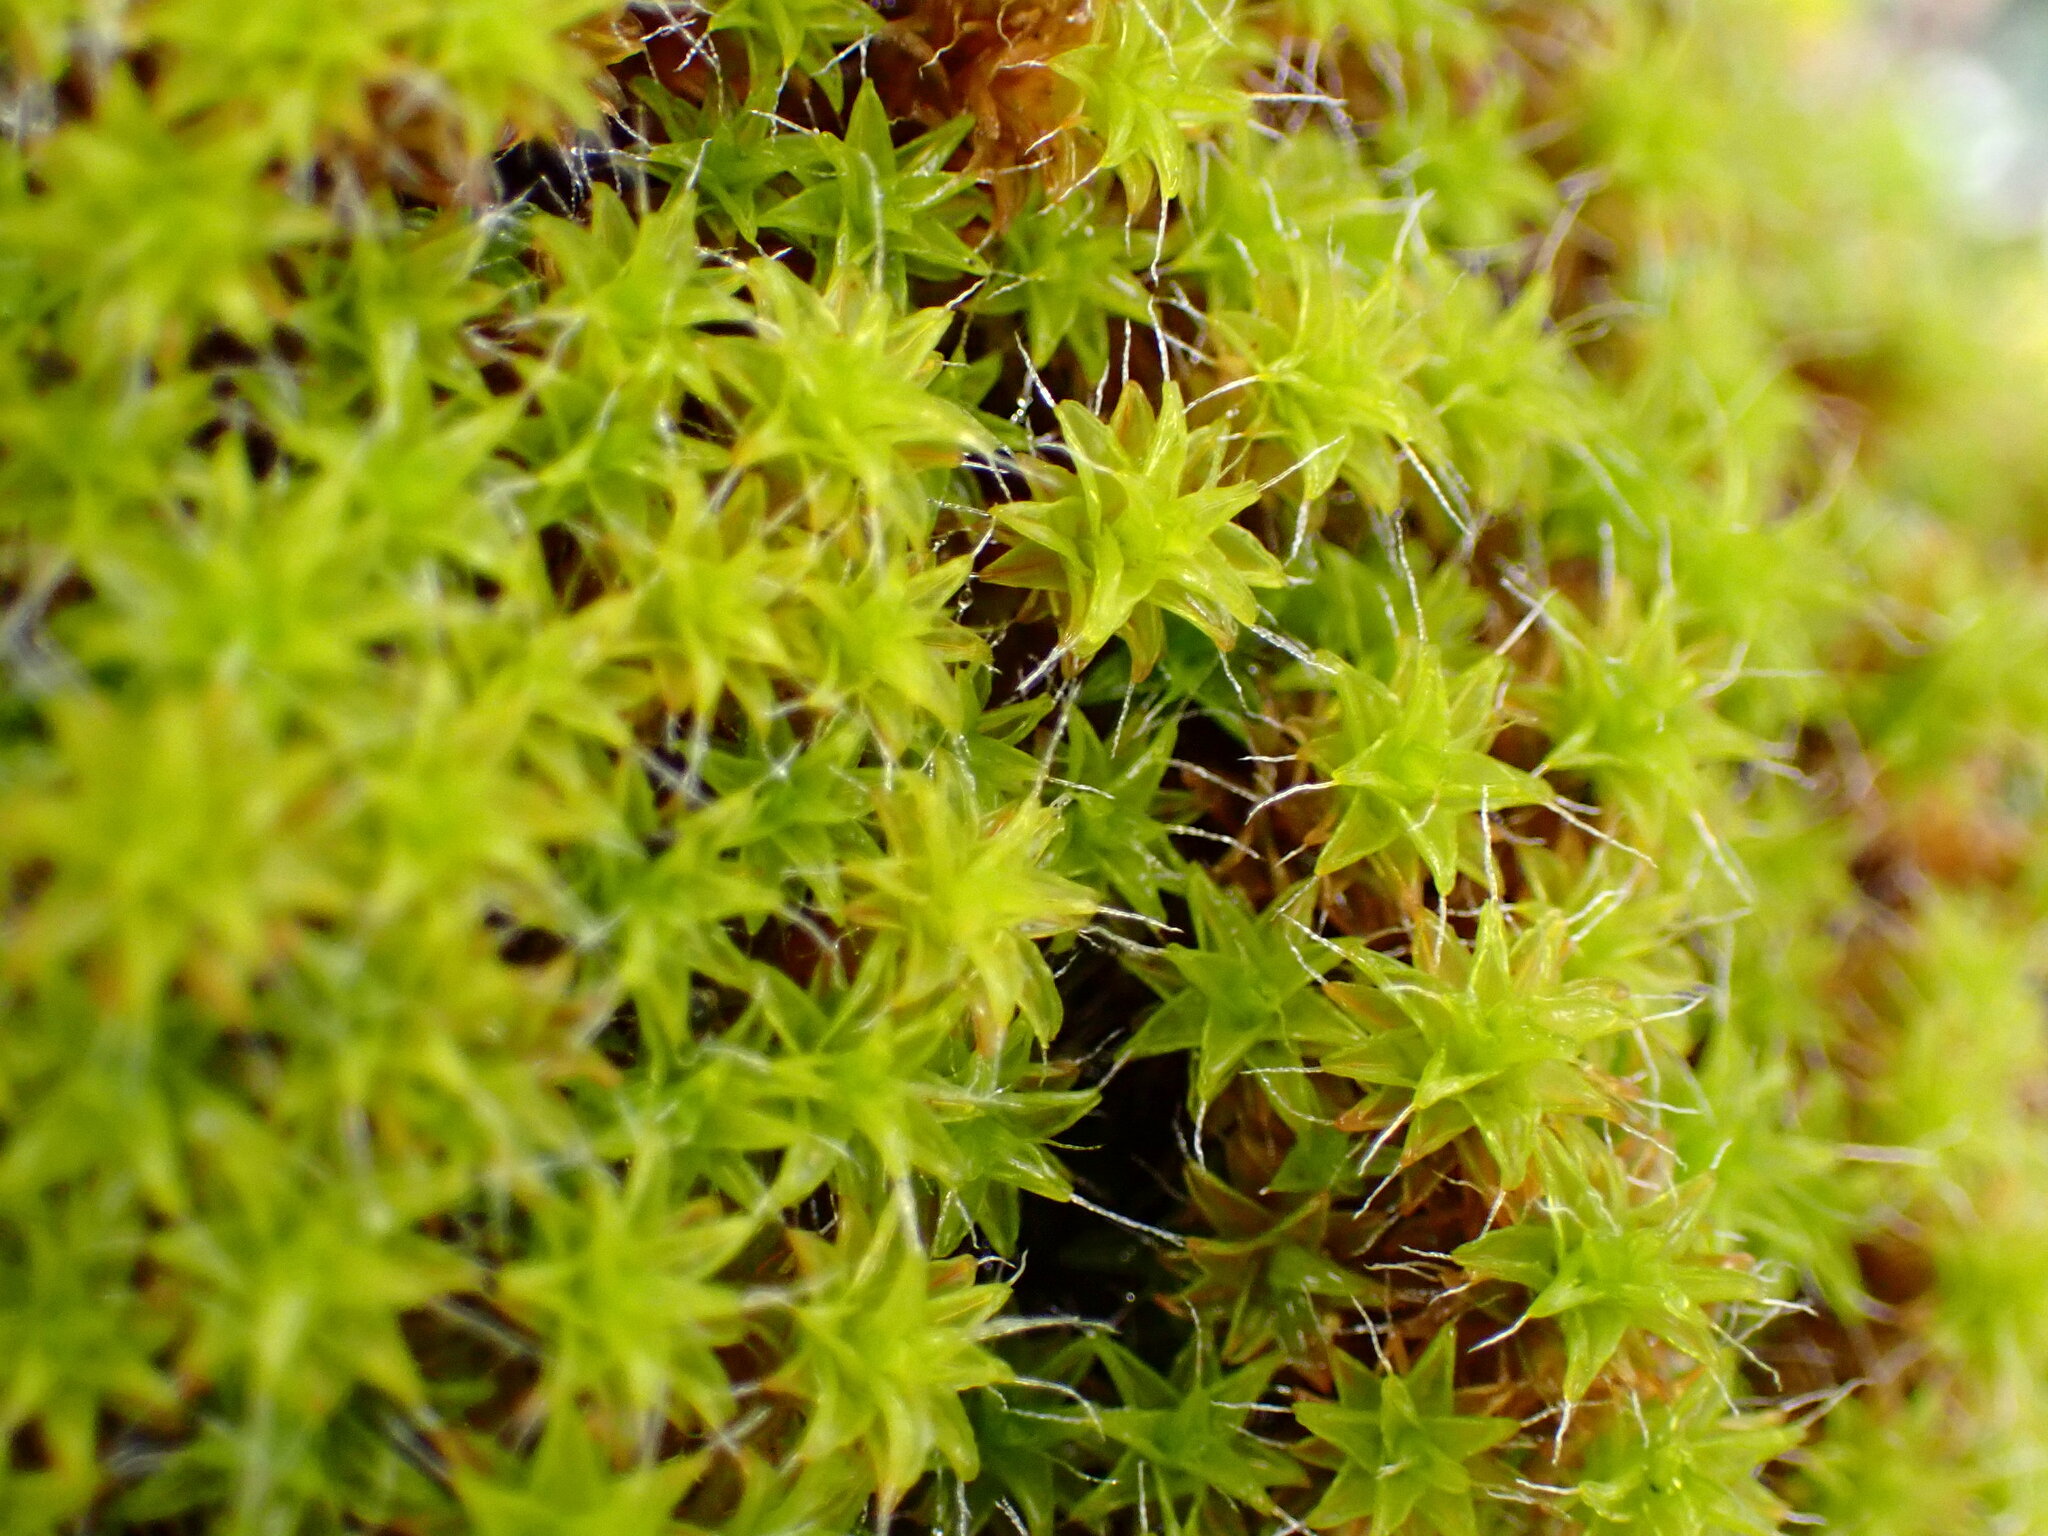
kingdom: Plantae
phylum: Bryophyta
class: Bryopsida
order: Pottiales
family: Pottiaceae
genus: Syntrichia
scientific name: Syntrichia ruralis
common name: Sidewalk screw moss
